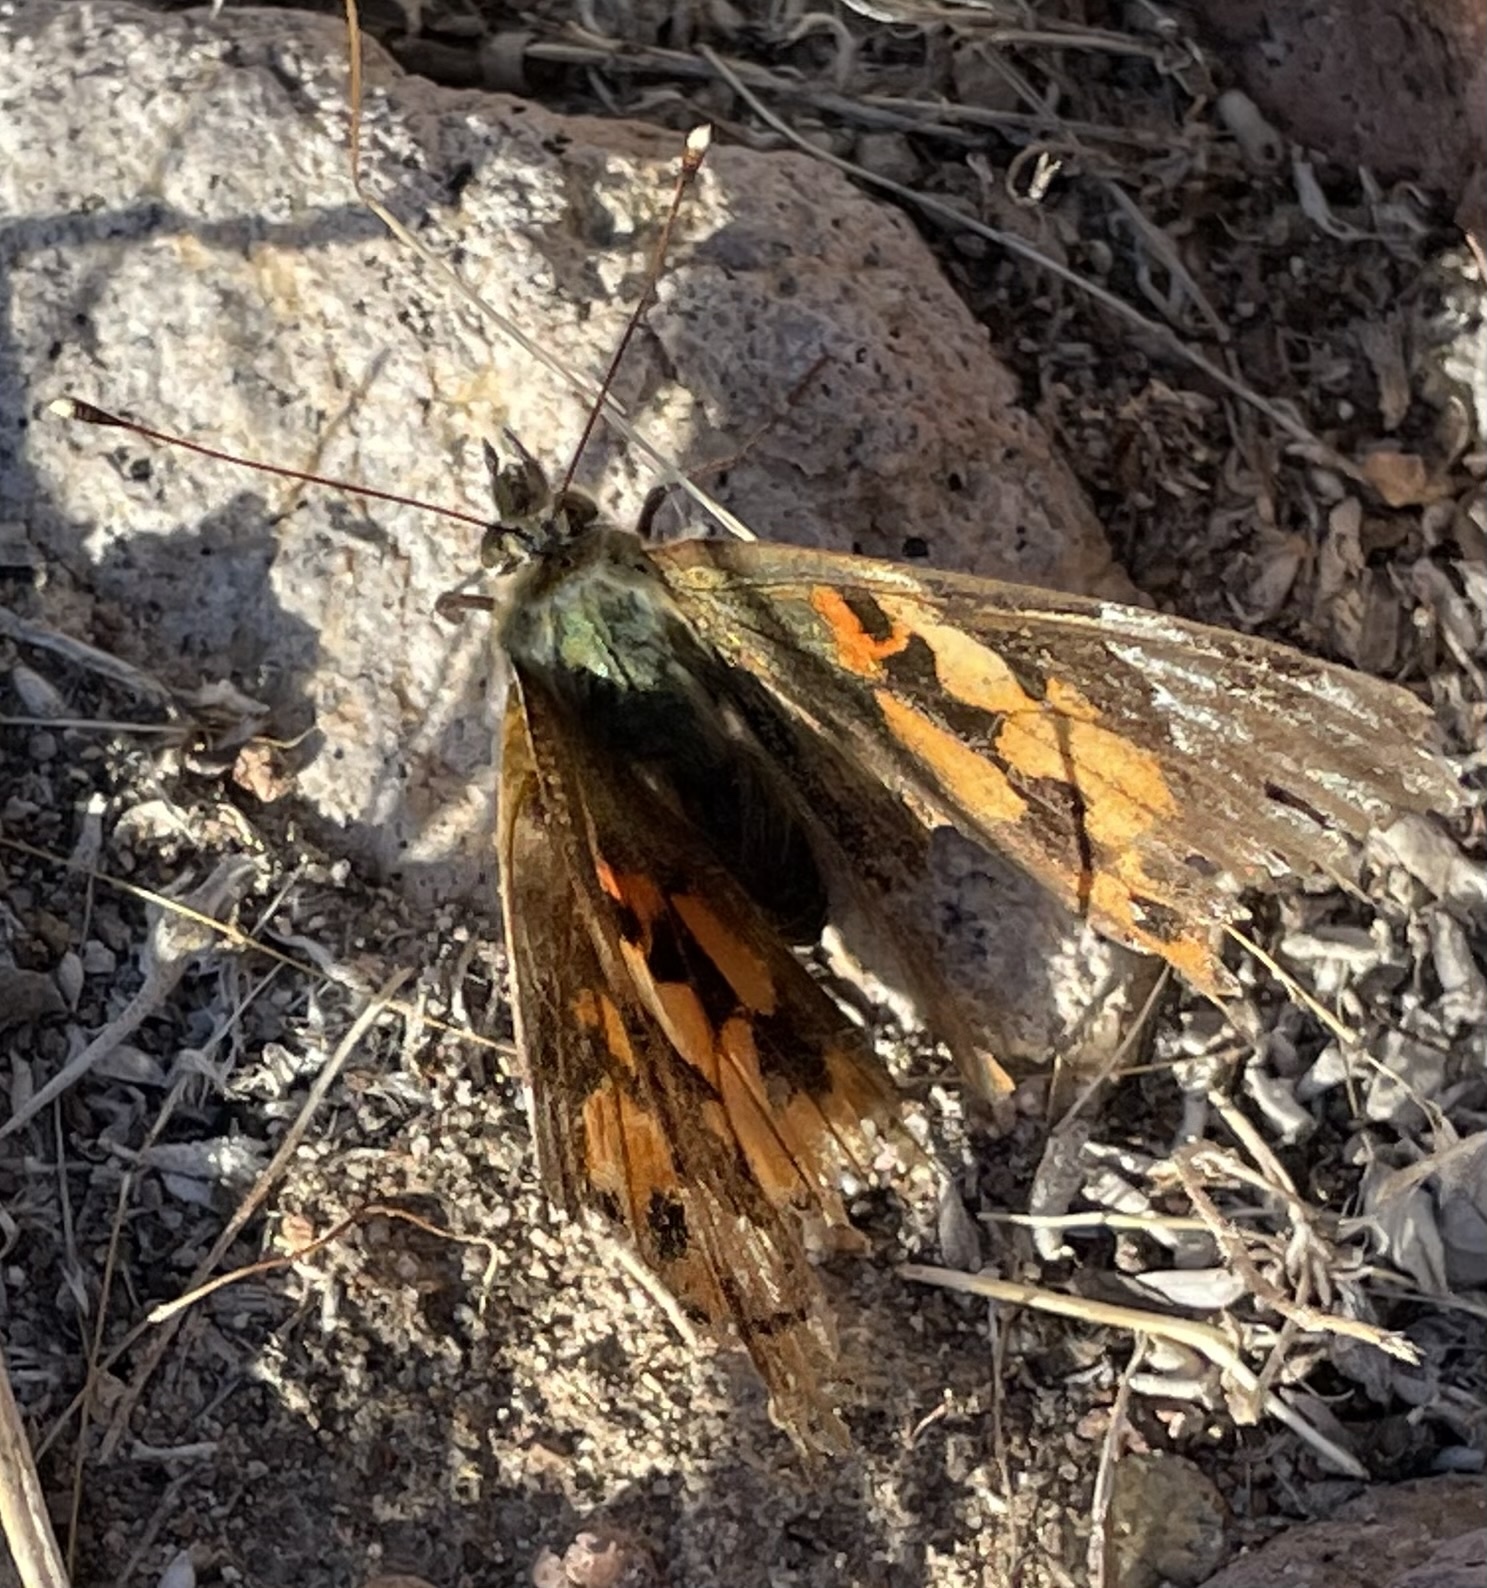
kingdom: Animalia
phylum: Arthropoda
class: Insecta
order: Lepidoptera
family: Nymphalidae
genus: Vanessa
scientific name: Vanessa cardui
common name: Painted lady
